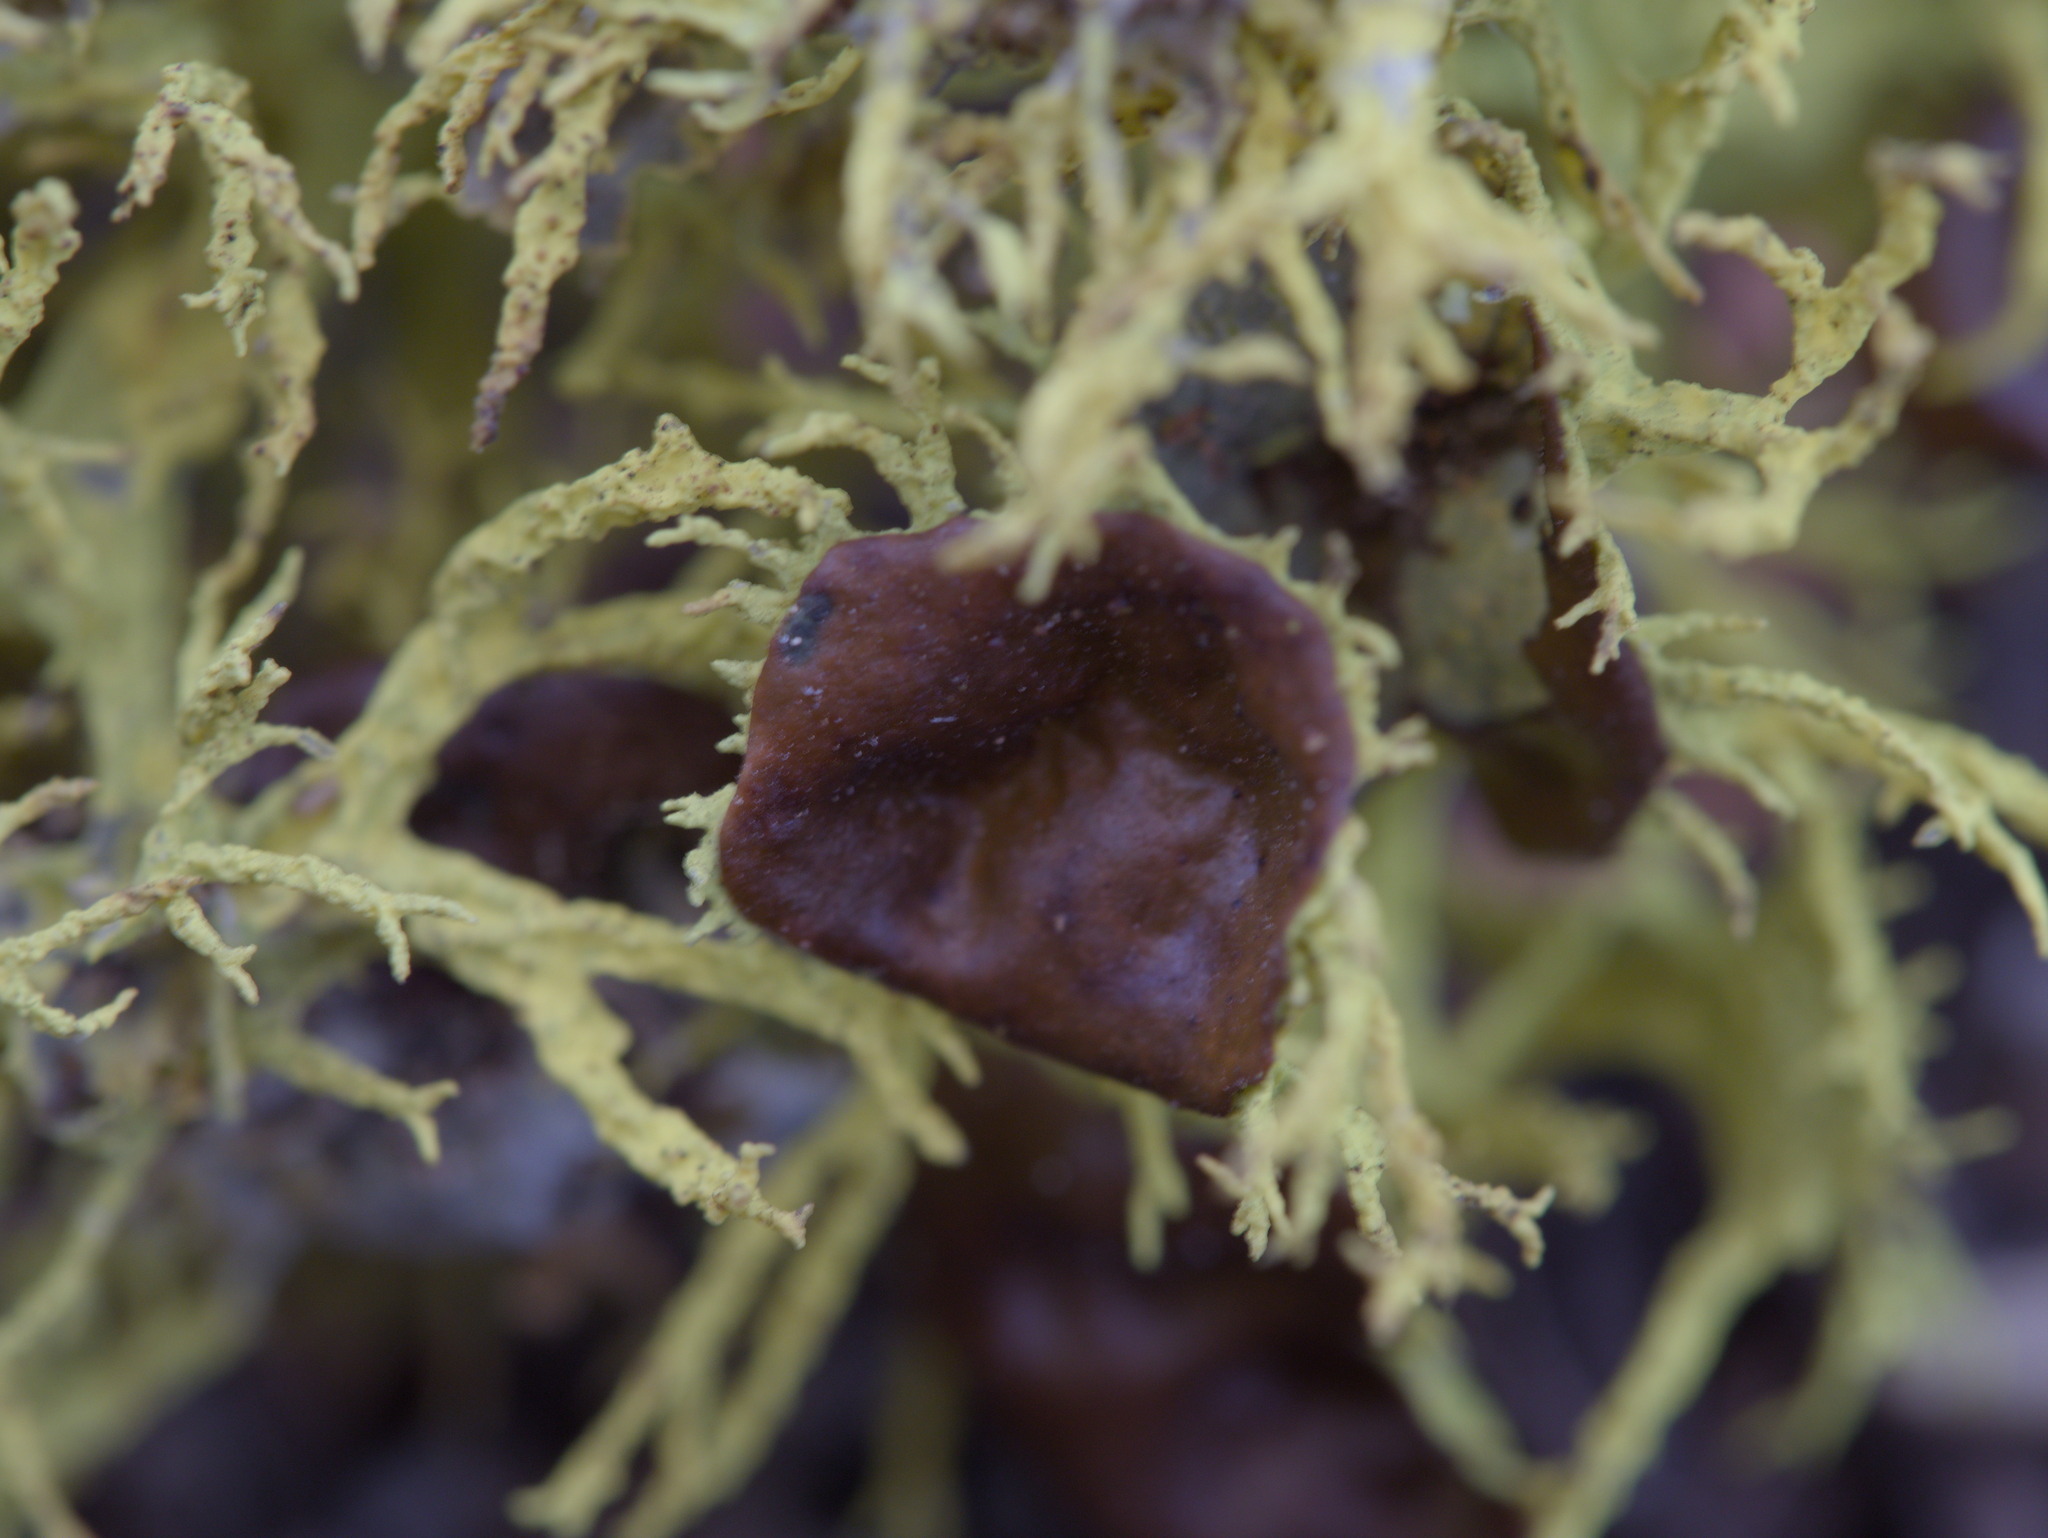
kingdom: Fungi
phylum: Ascomycota
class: Lecanoromycetes
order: Lecanorales
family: Parmeliaceae
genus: Letharia
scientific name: Letharia columbiana
